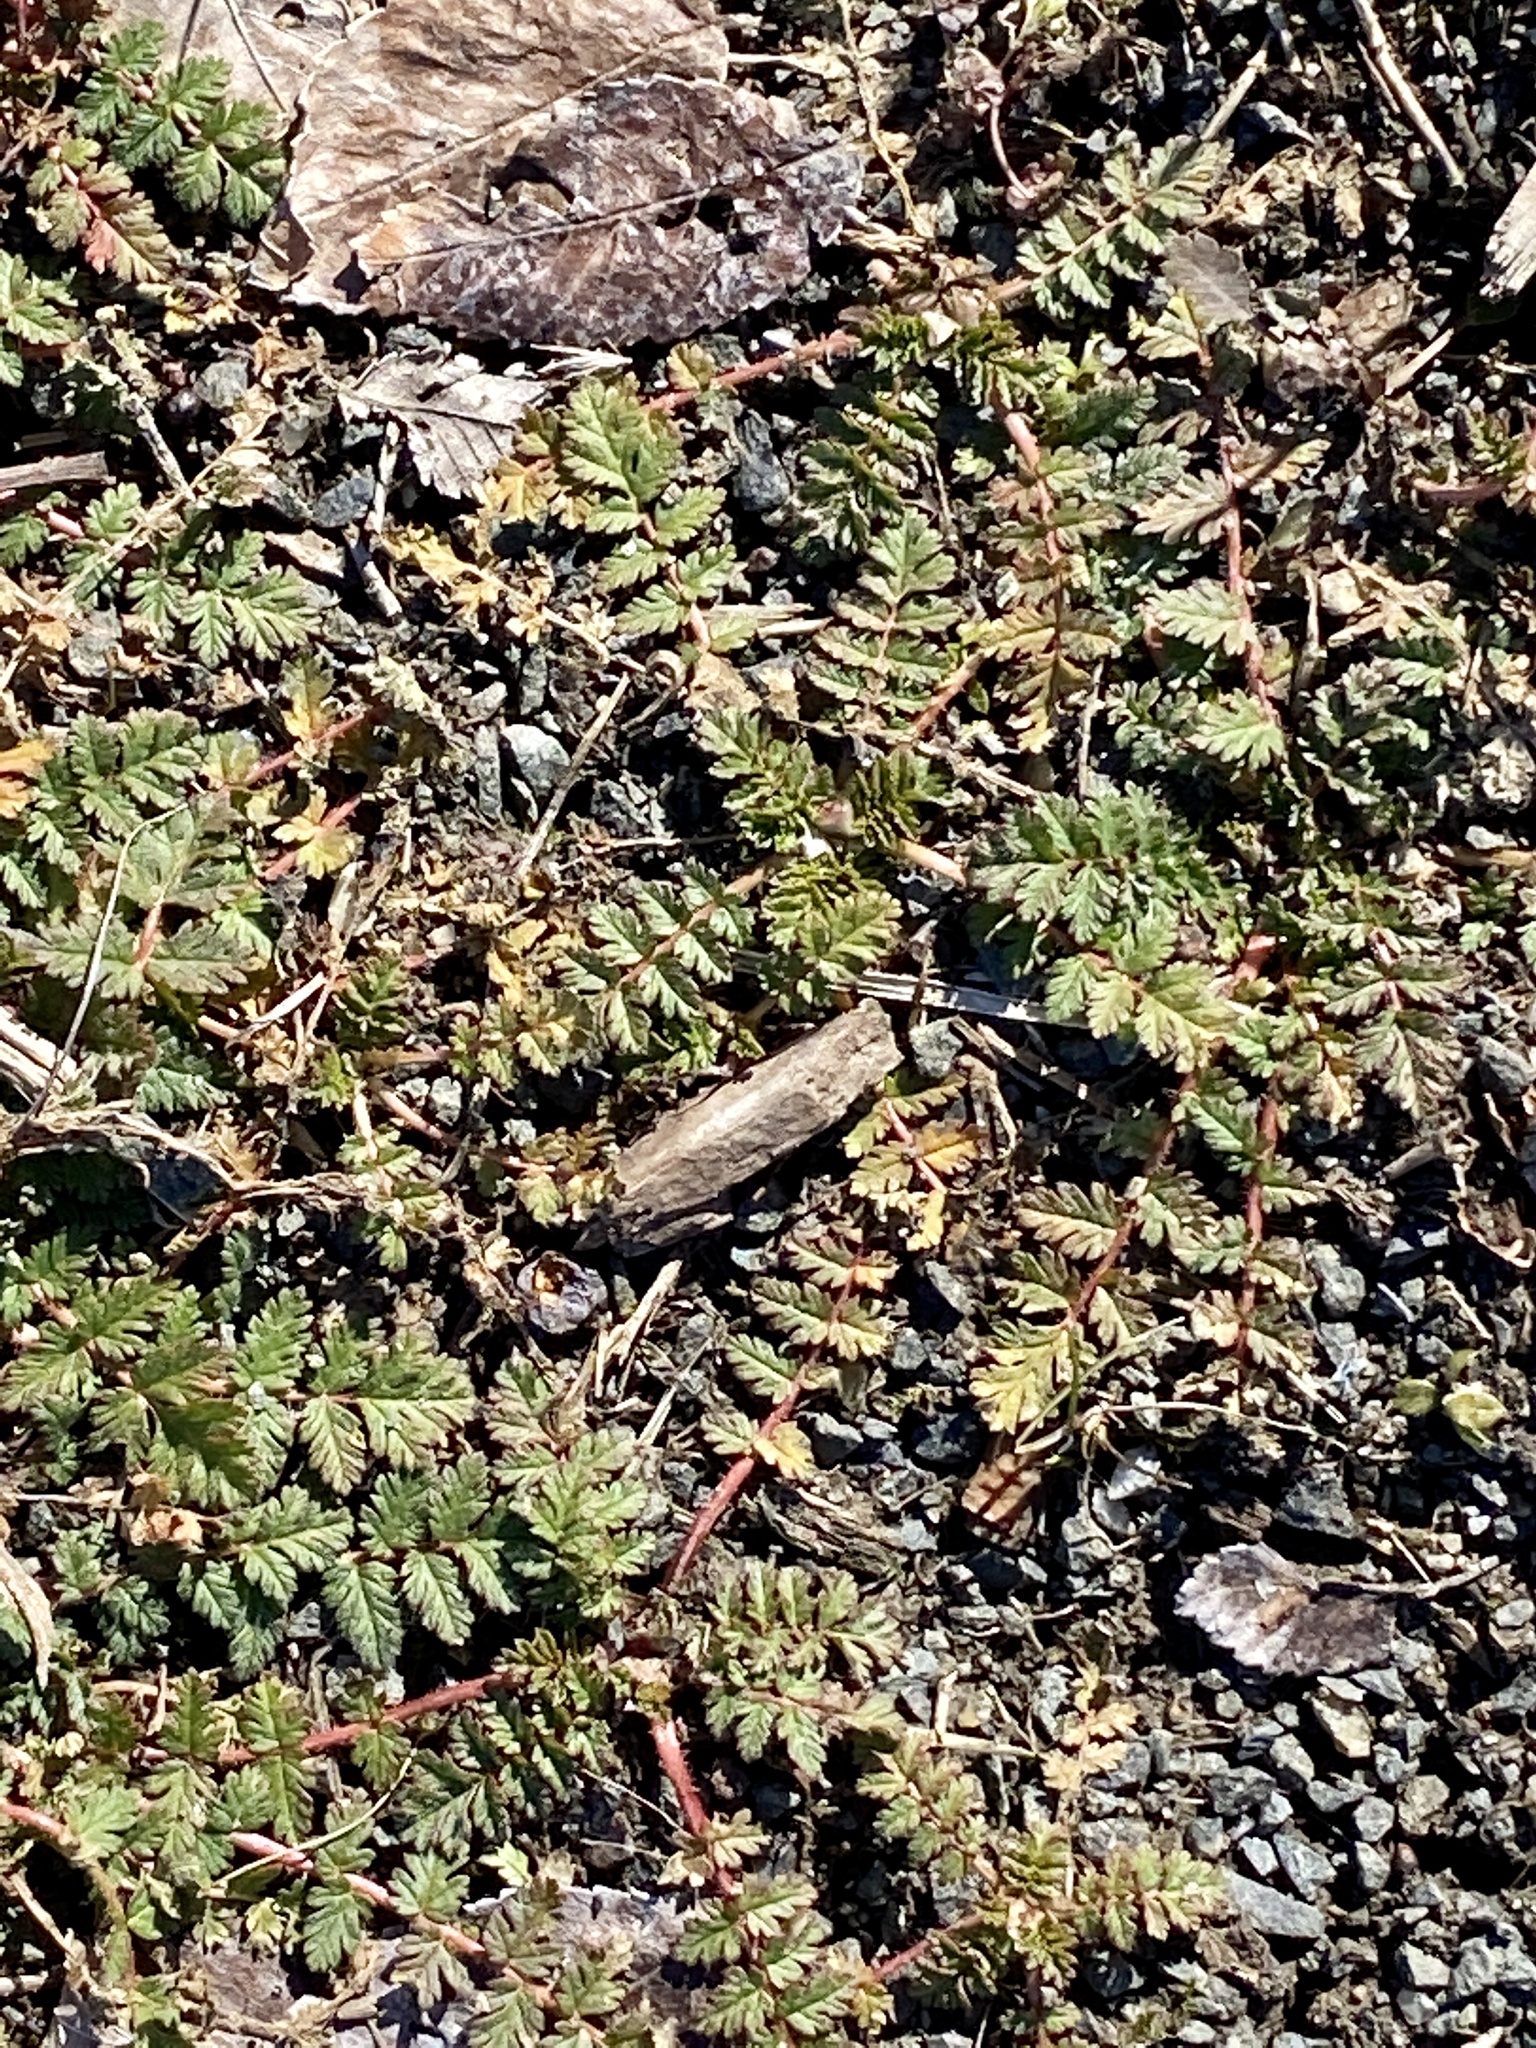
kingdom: Plantae
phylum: Tracheophyta
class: Magnoliopsida
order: Geraniales
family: Geraniaceae
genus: Erodium
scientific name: Erodium cicutarium
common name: Common stork's-bill
